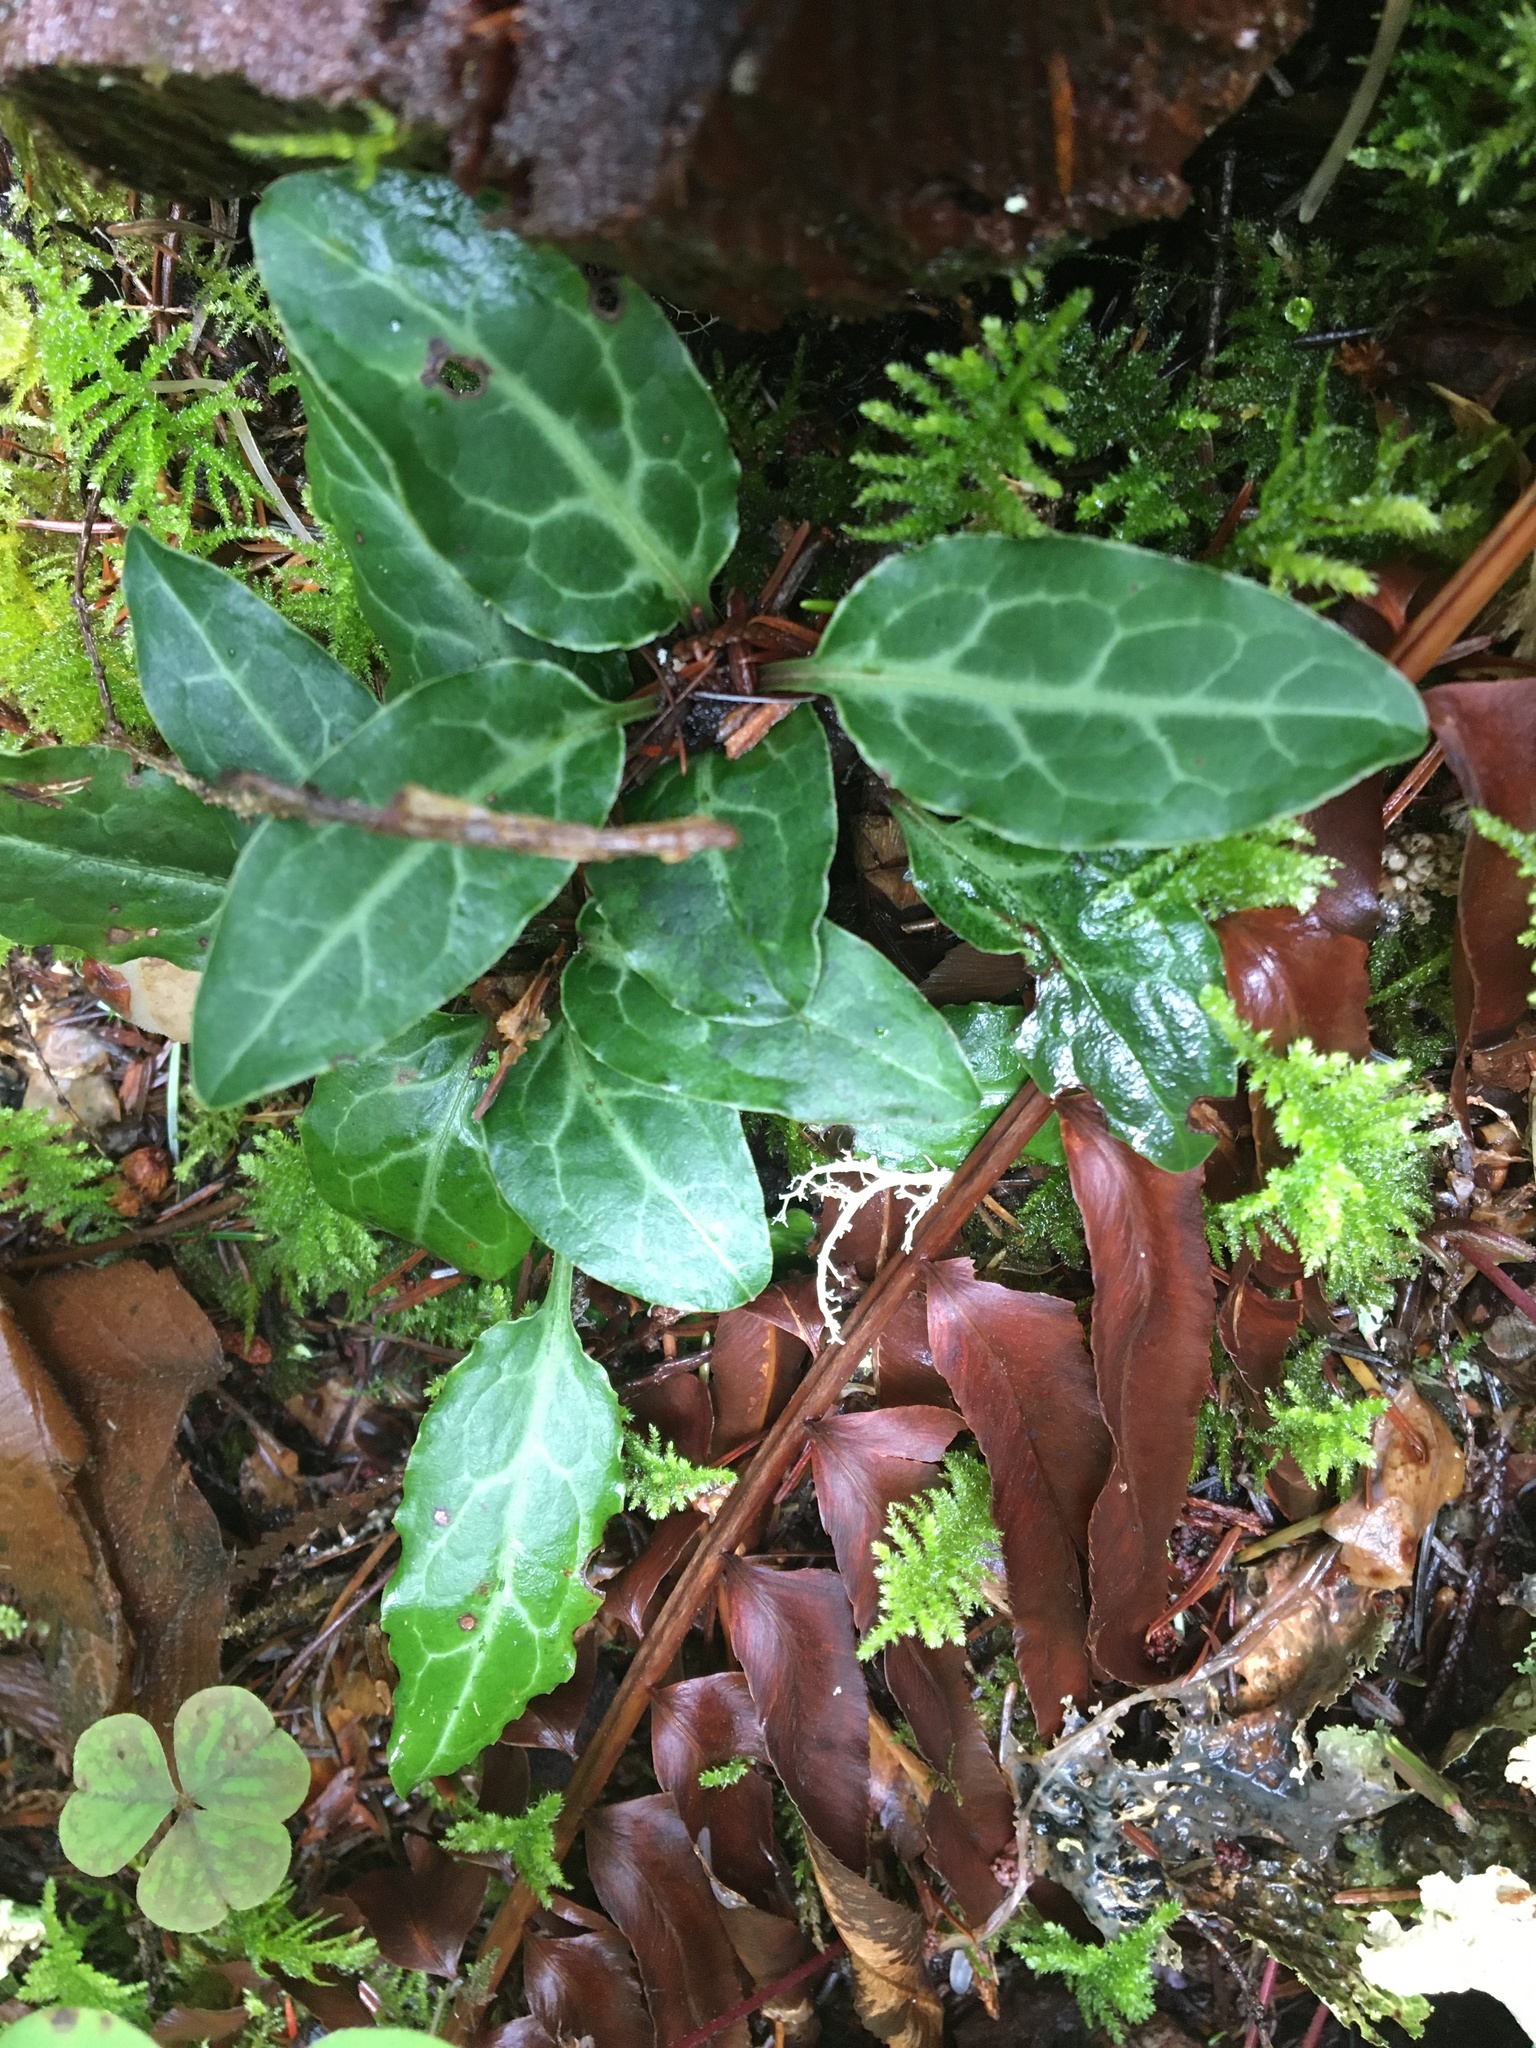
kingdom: Plantae
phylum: Tracheophyta
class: Magnoliopsida
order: Ericales
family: Ericaceae
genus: Pyrola
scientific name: Pyrola picta
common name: White-vein wintergreen
